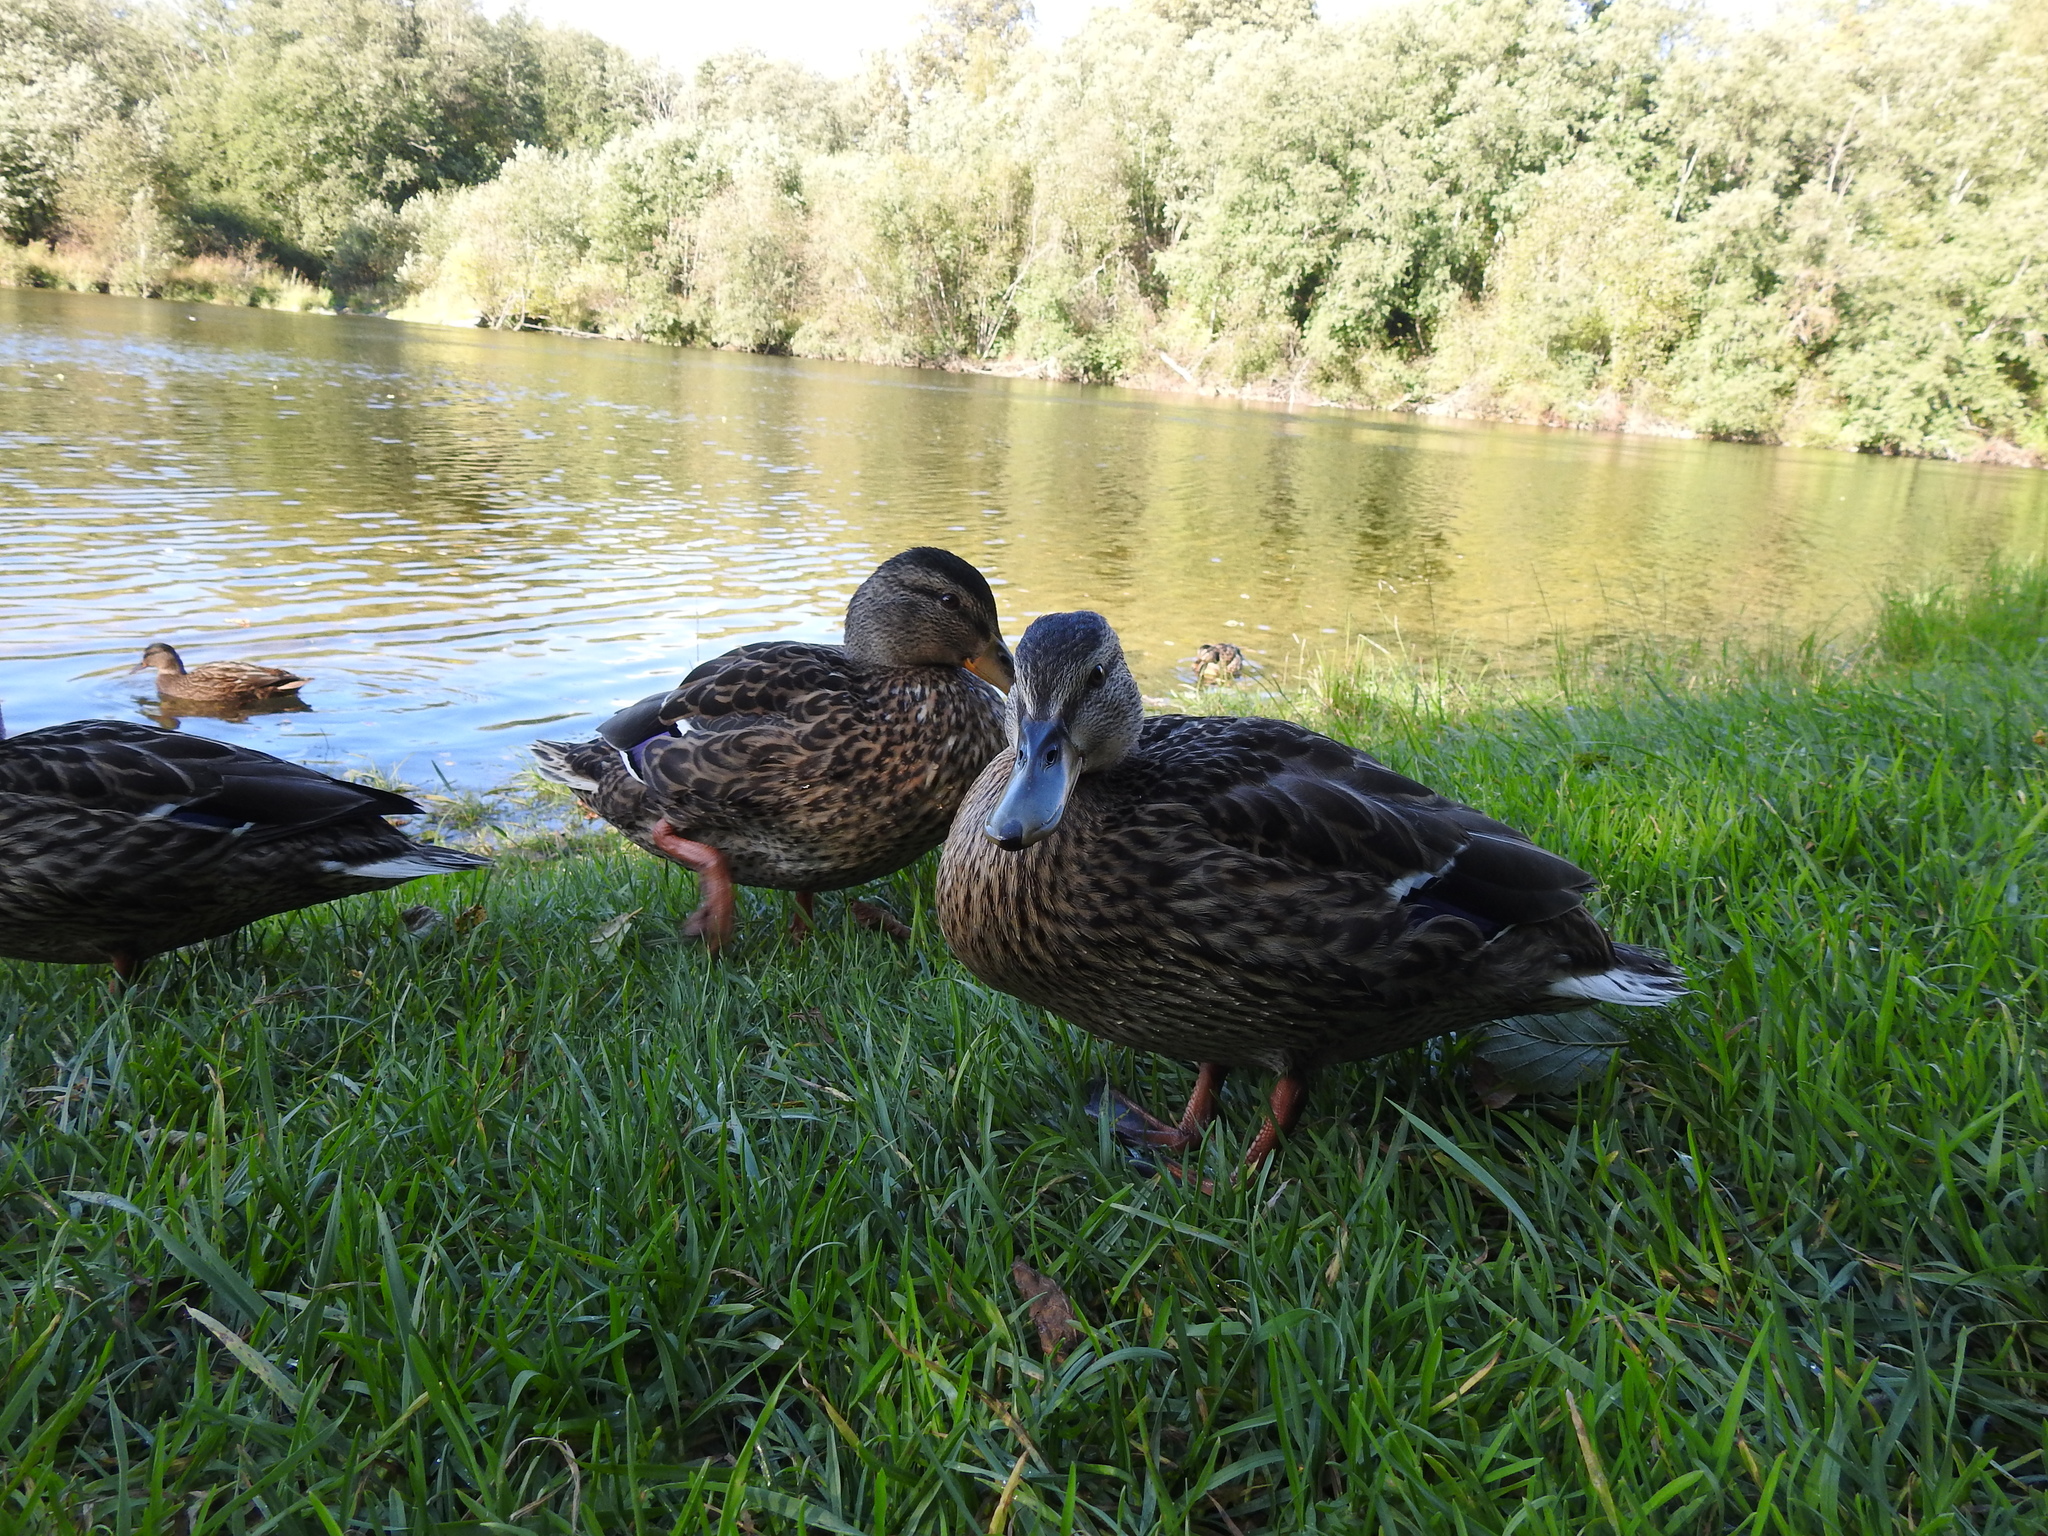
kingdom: Animalia
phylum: Chordata
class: Aves
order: Anseriformes
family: Anatidae
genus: Anas
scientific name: Anas platyrhynchos
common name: Mallard
